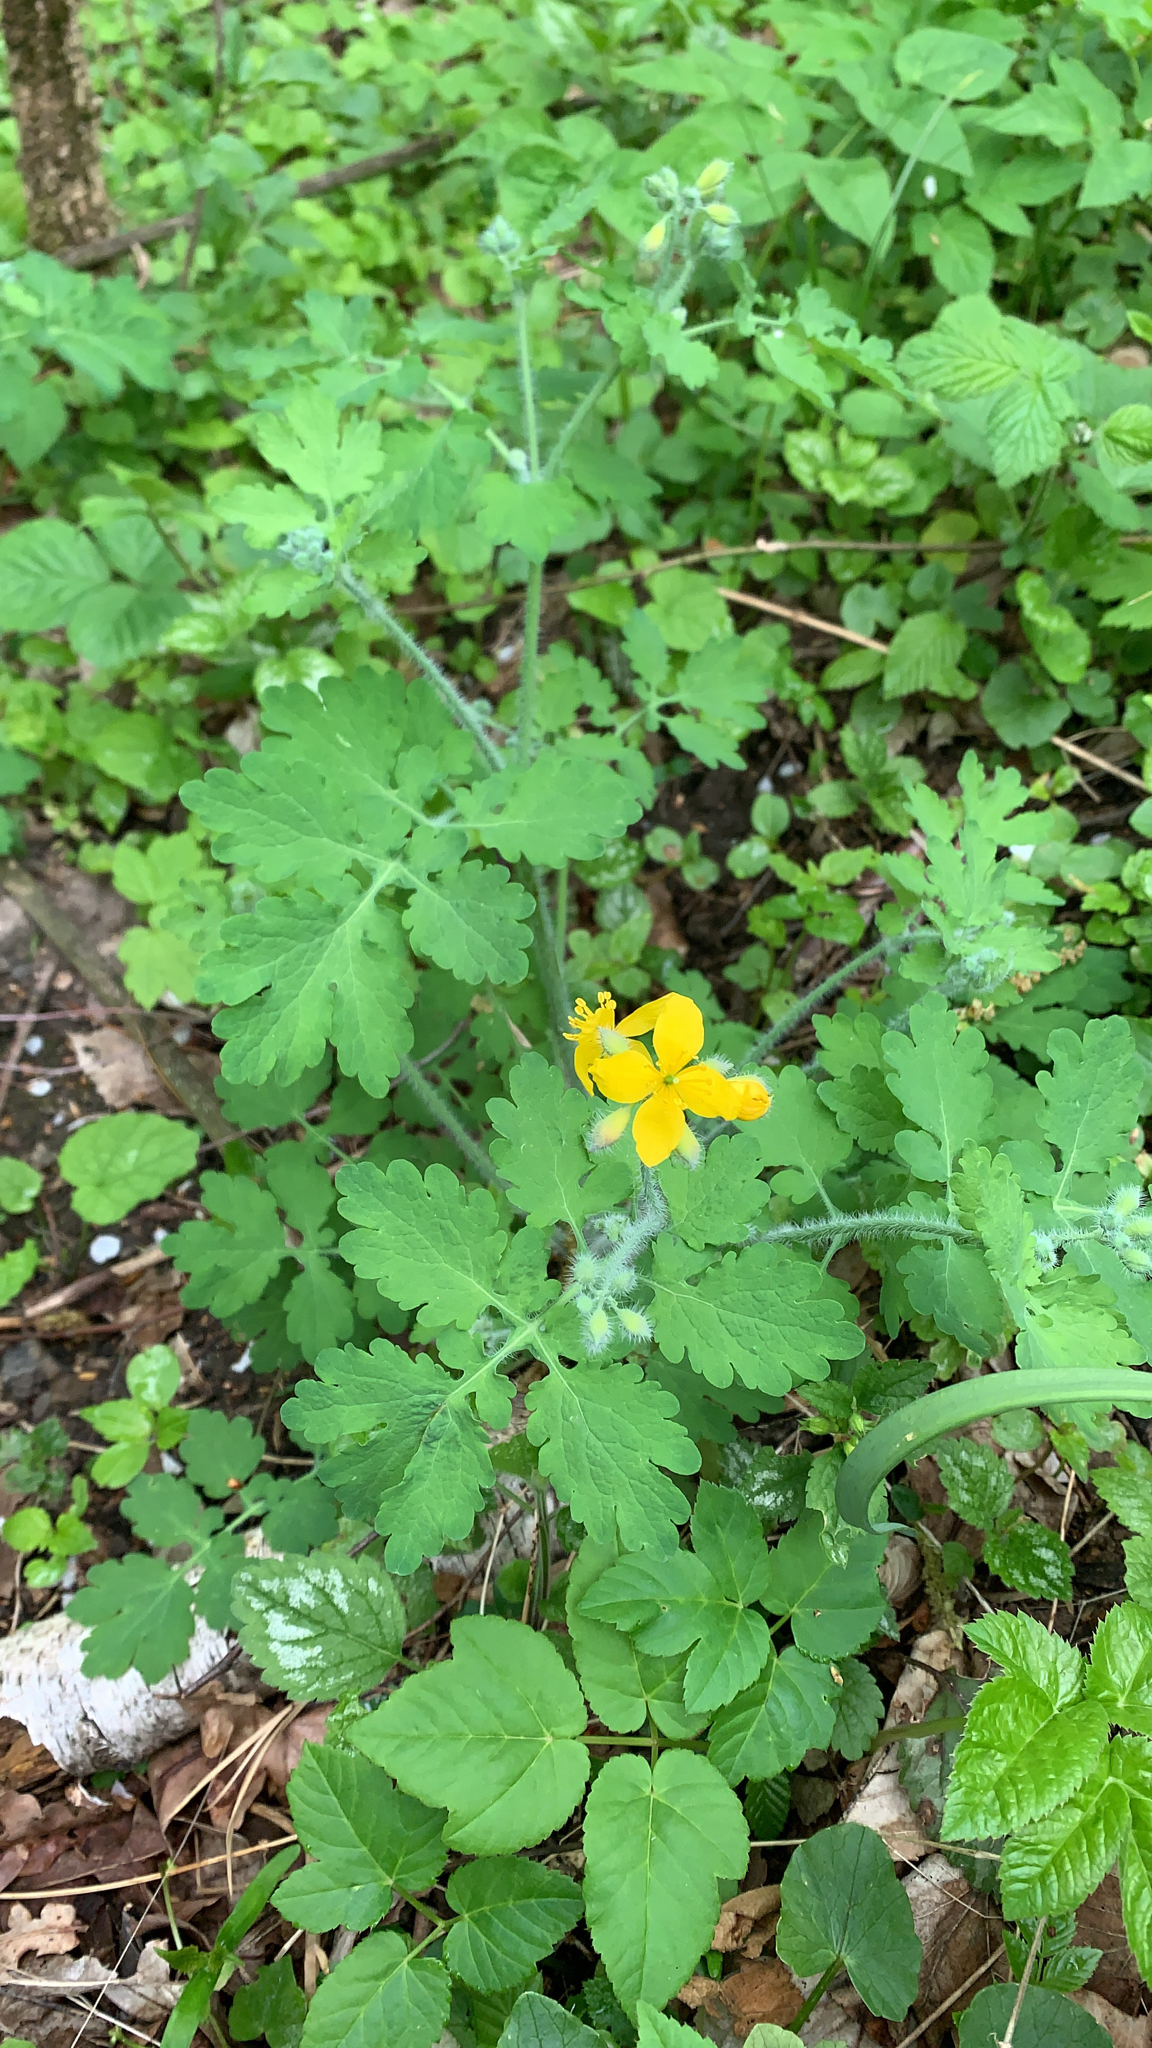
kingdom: Plantae
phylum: Tracheophyta
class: Magnoliopsida
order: Ranunculales
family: Papaveraceae
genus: Chelidonium
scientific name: Chelidonium majus
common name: Greater celandine
